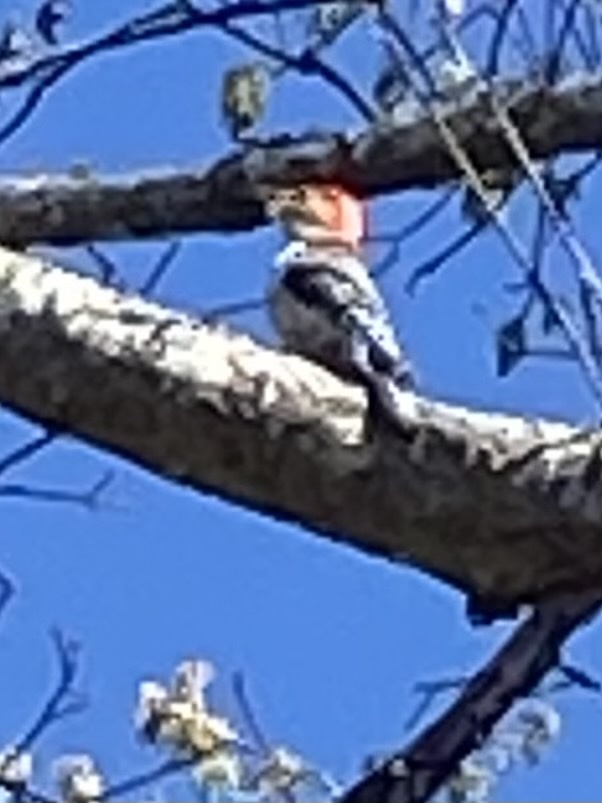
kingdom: Animalia
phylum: Chordata
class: Aves
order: Piciformes
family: Picidae
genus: Melanerpes
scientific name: Melanerpes carolinus
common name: Red-bellied woodpecker
